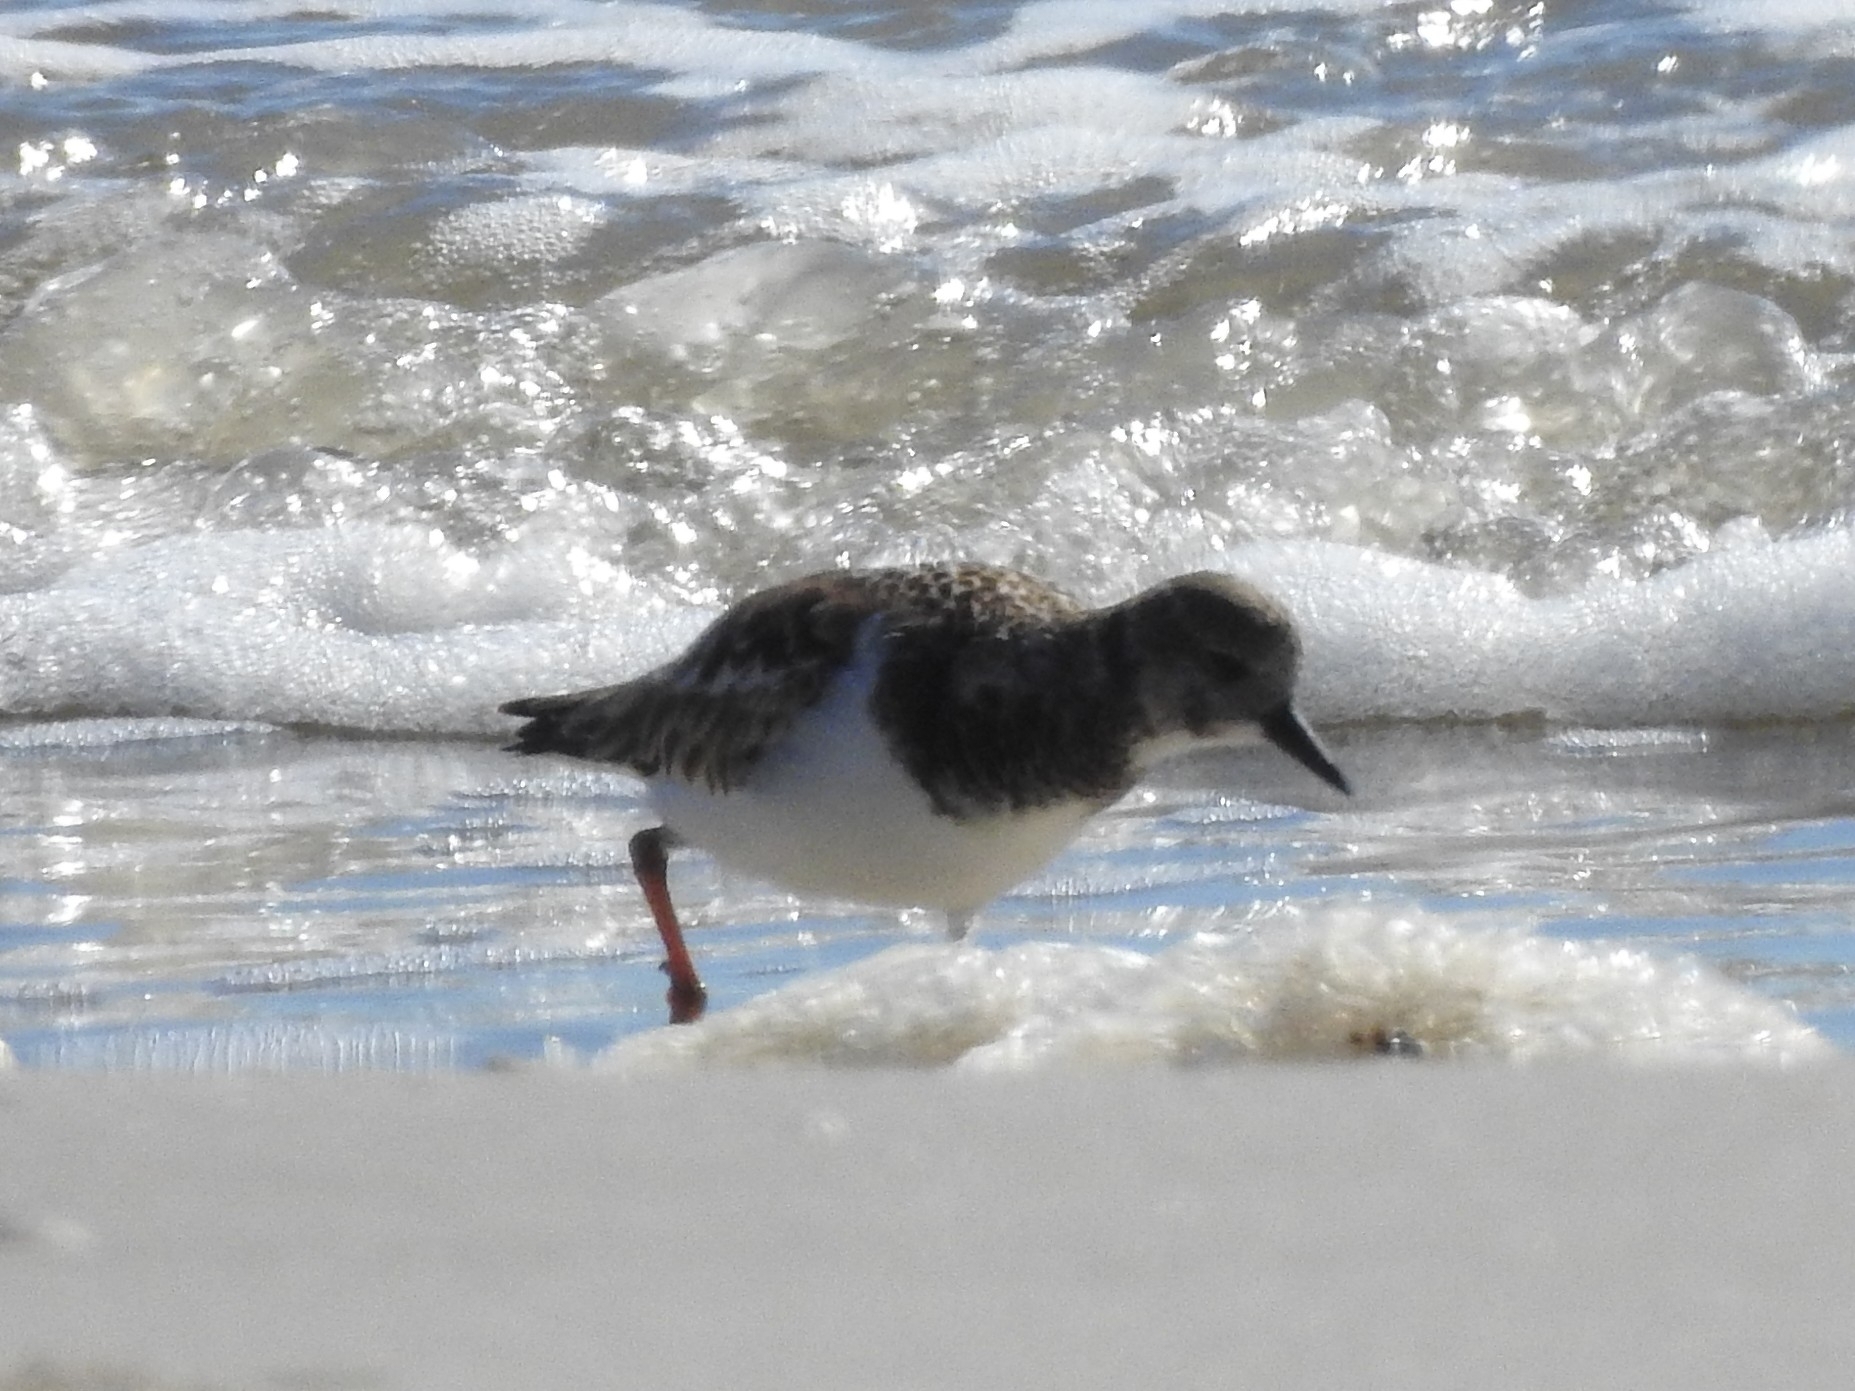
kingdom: Animalia
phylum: Chordata
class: Aves
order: Charadriiformes
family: Scolopacidae
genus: Arenaria
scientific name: Arenaria interpres
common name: Ruddy turnstone
